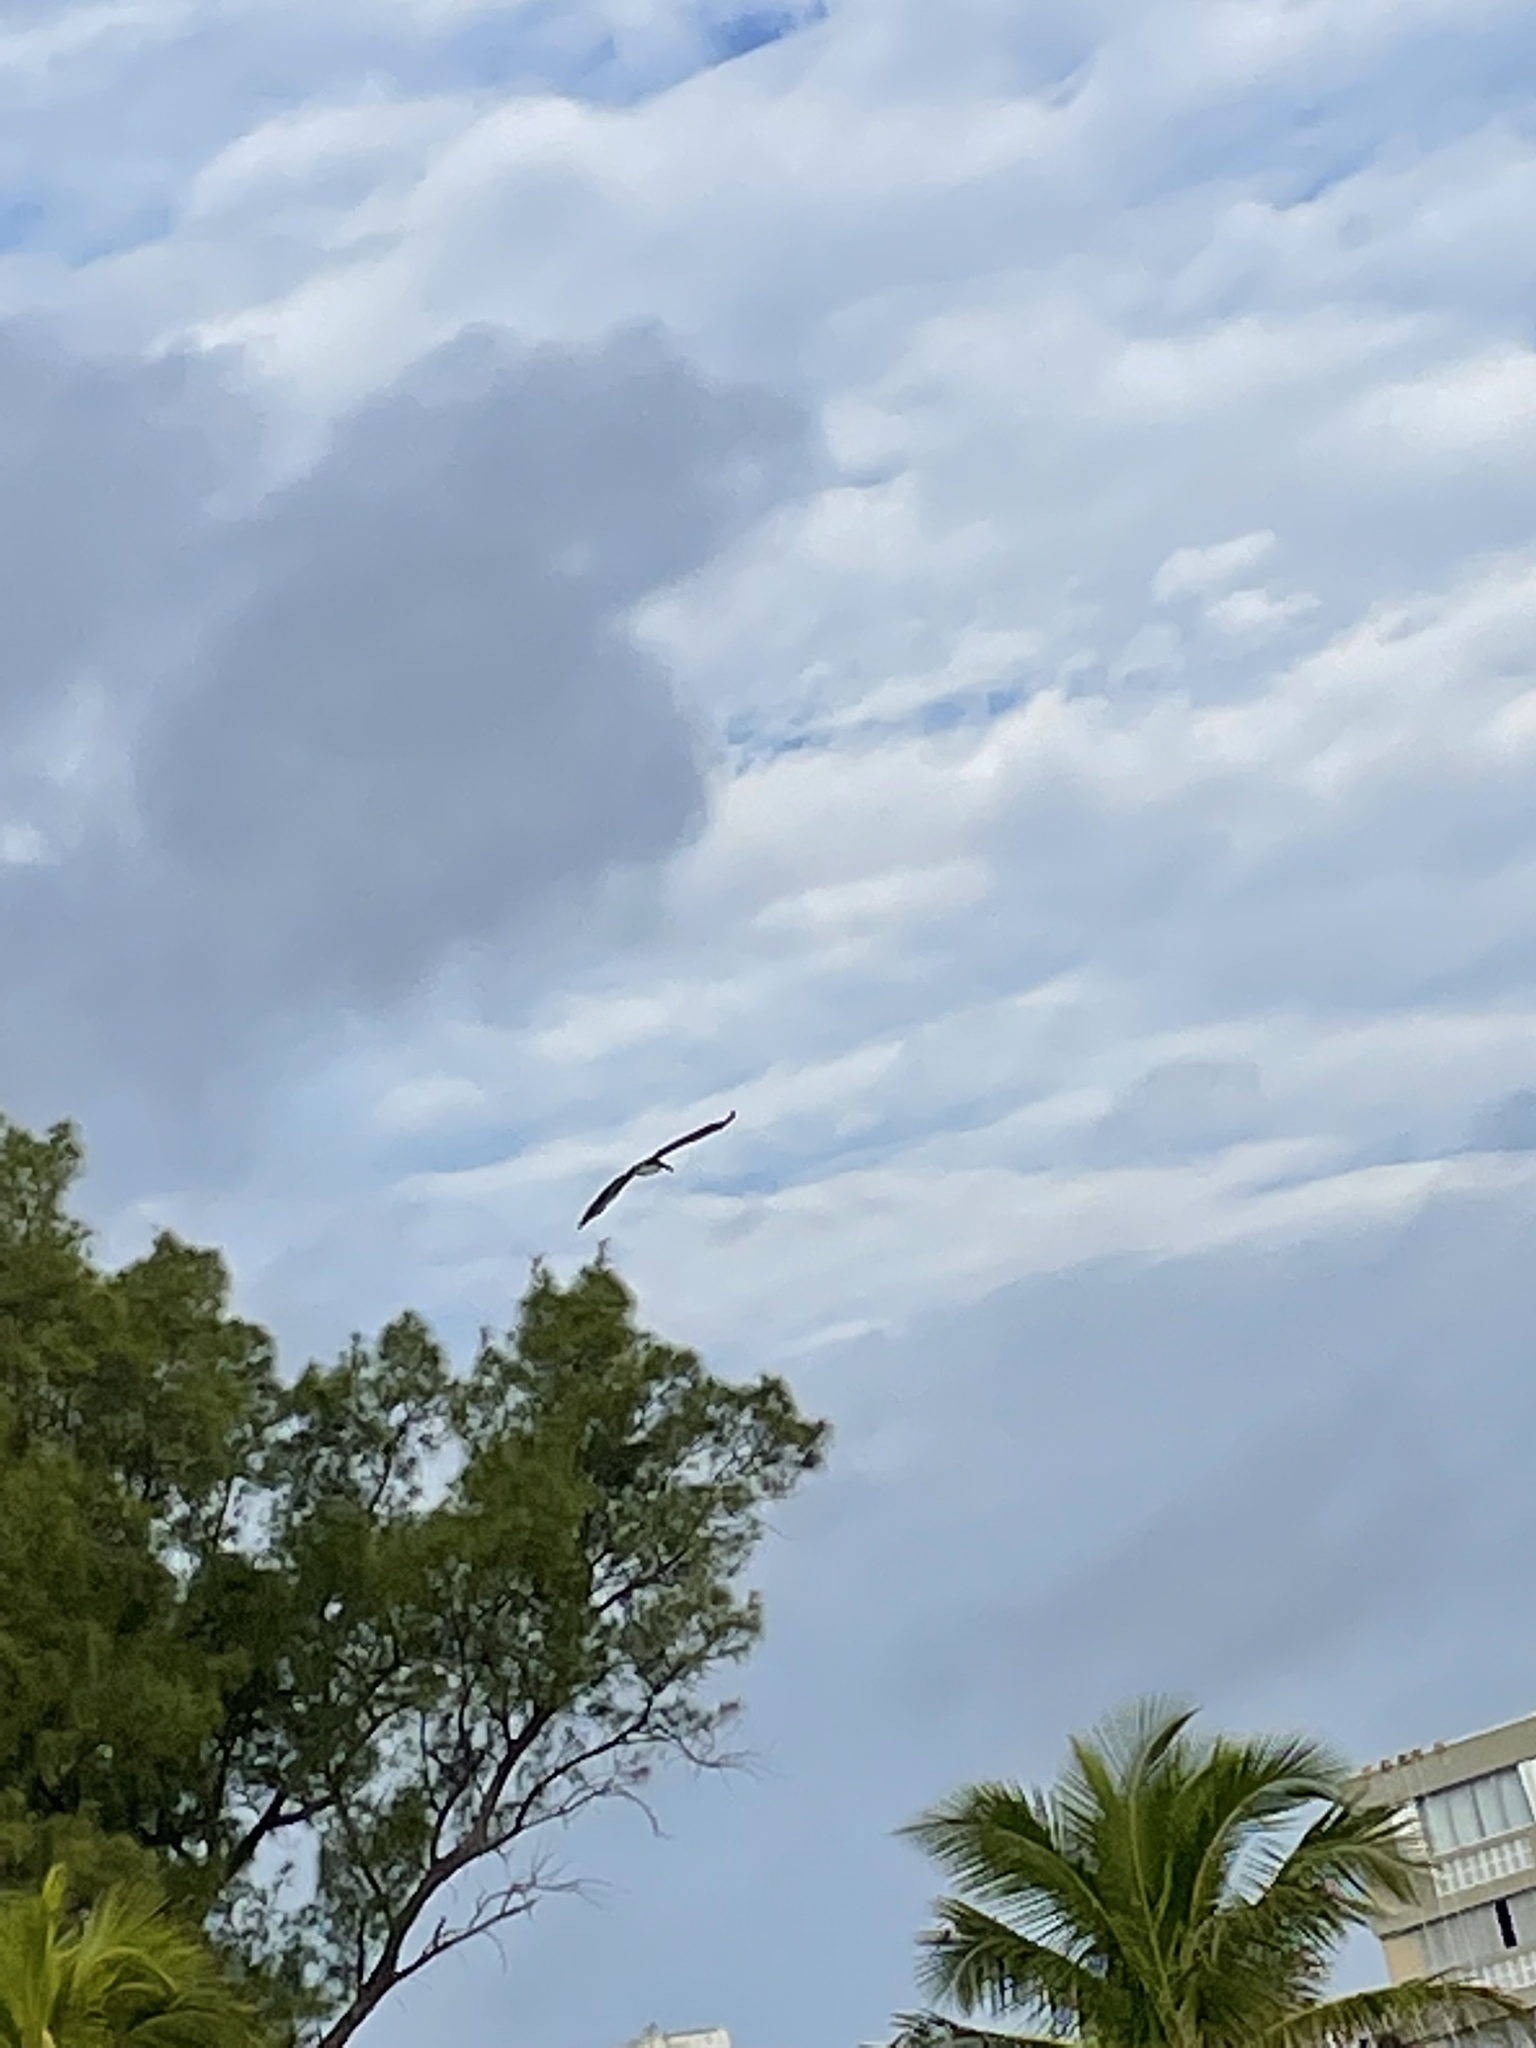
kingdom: Animalia
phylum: Chordata
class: Aves
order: Pelecaniformes
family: Pelecanidae
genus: Pelecanus
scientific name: Pelecanus occidentalis
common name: Brown pelican
